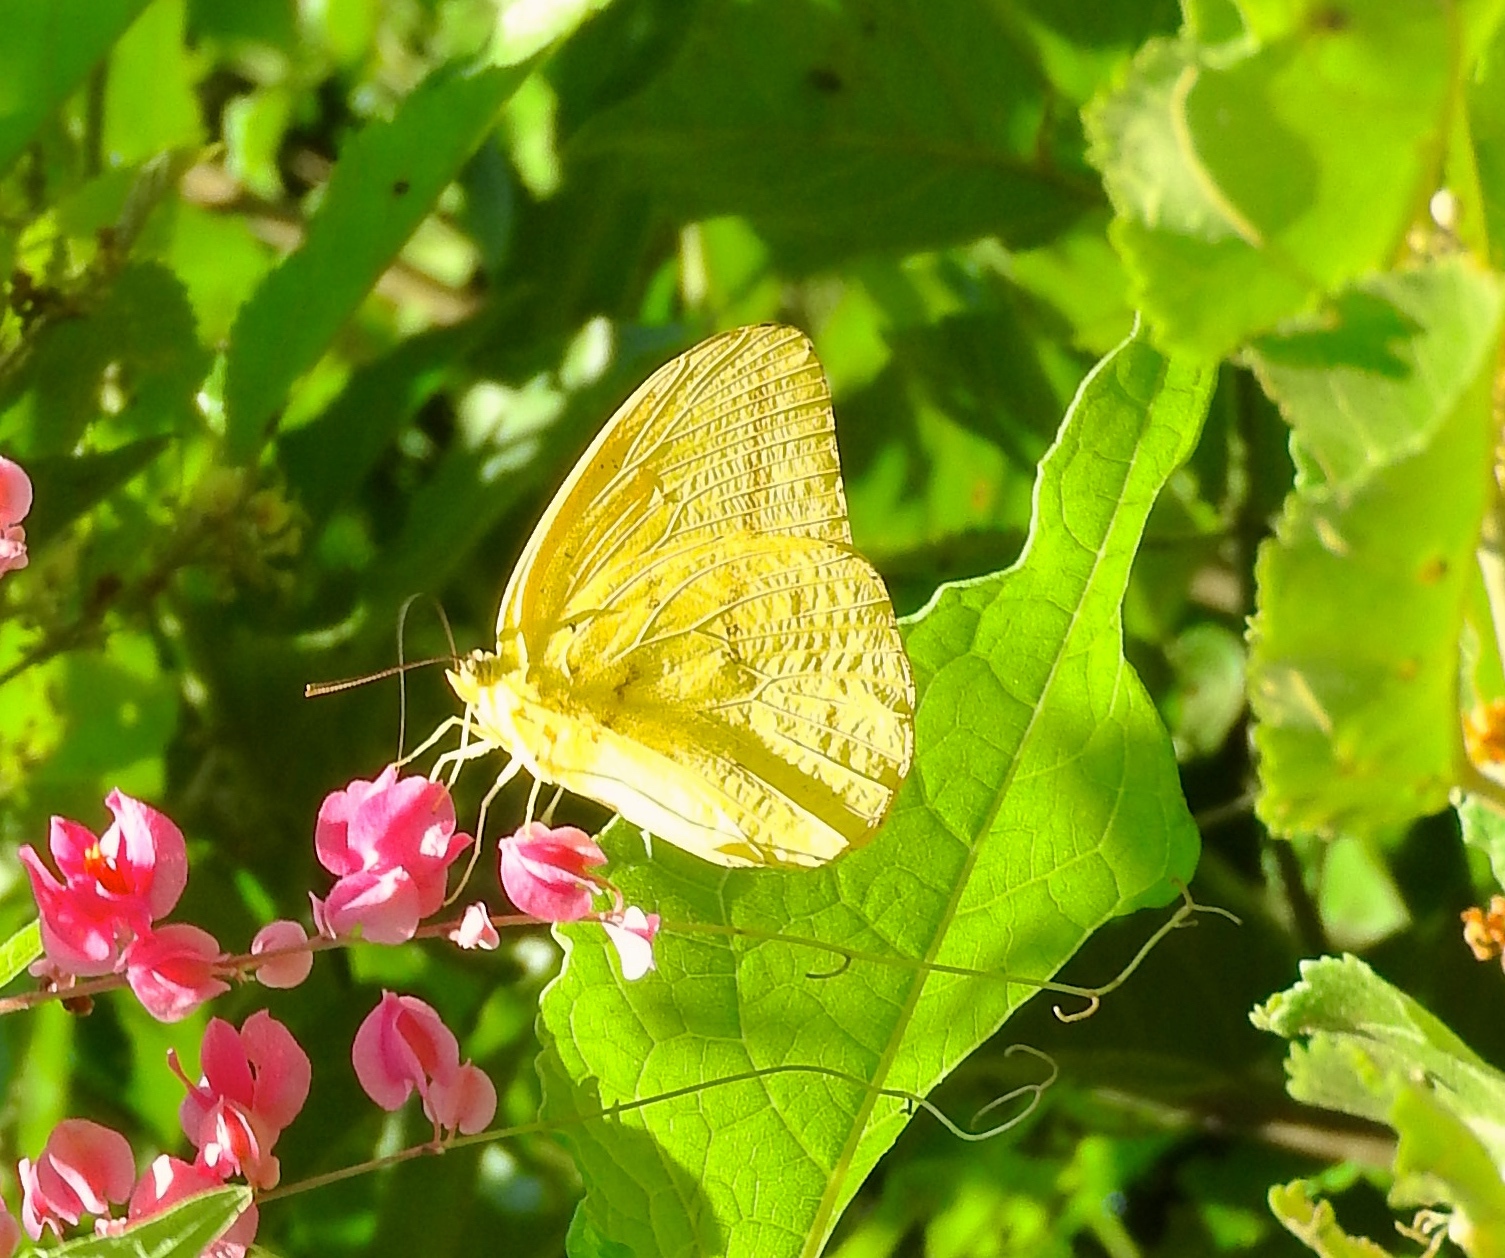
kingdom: Animalia
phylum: Arthropoda
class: Insecta
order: Lepidoptera
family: Pieridae
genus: Phoebis
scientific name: Phoebis agarithe
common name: Large orange sulphur
